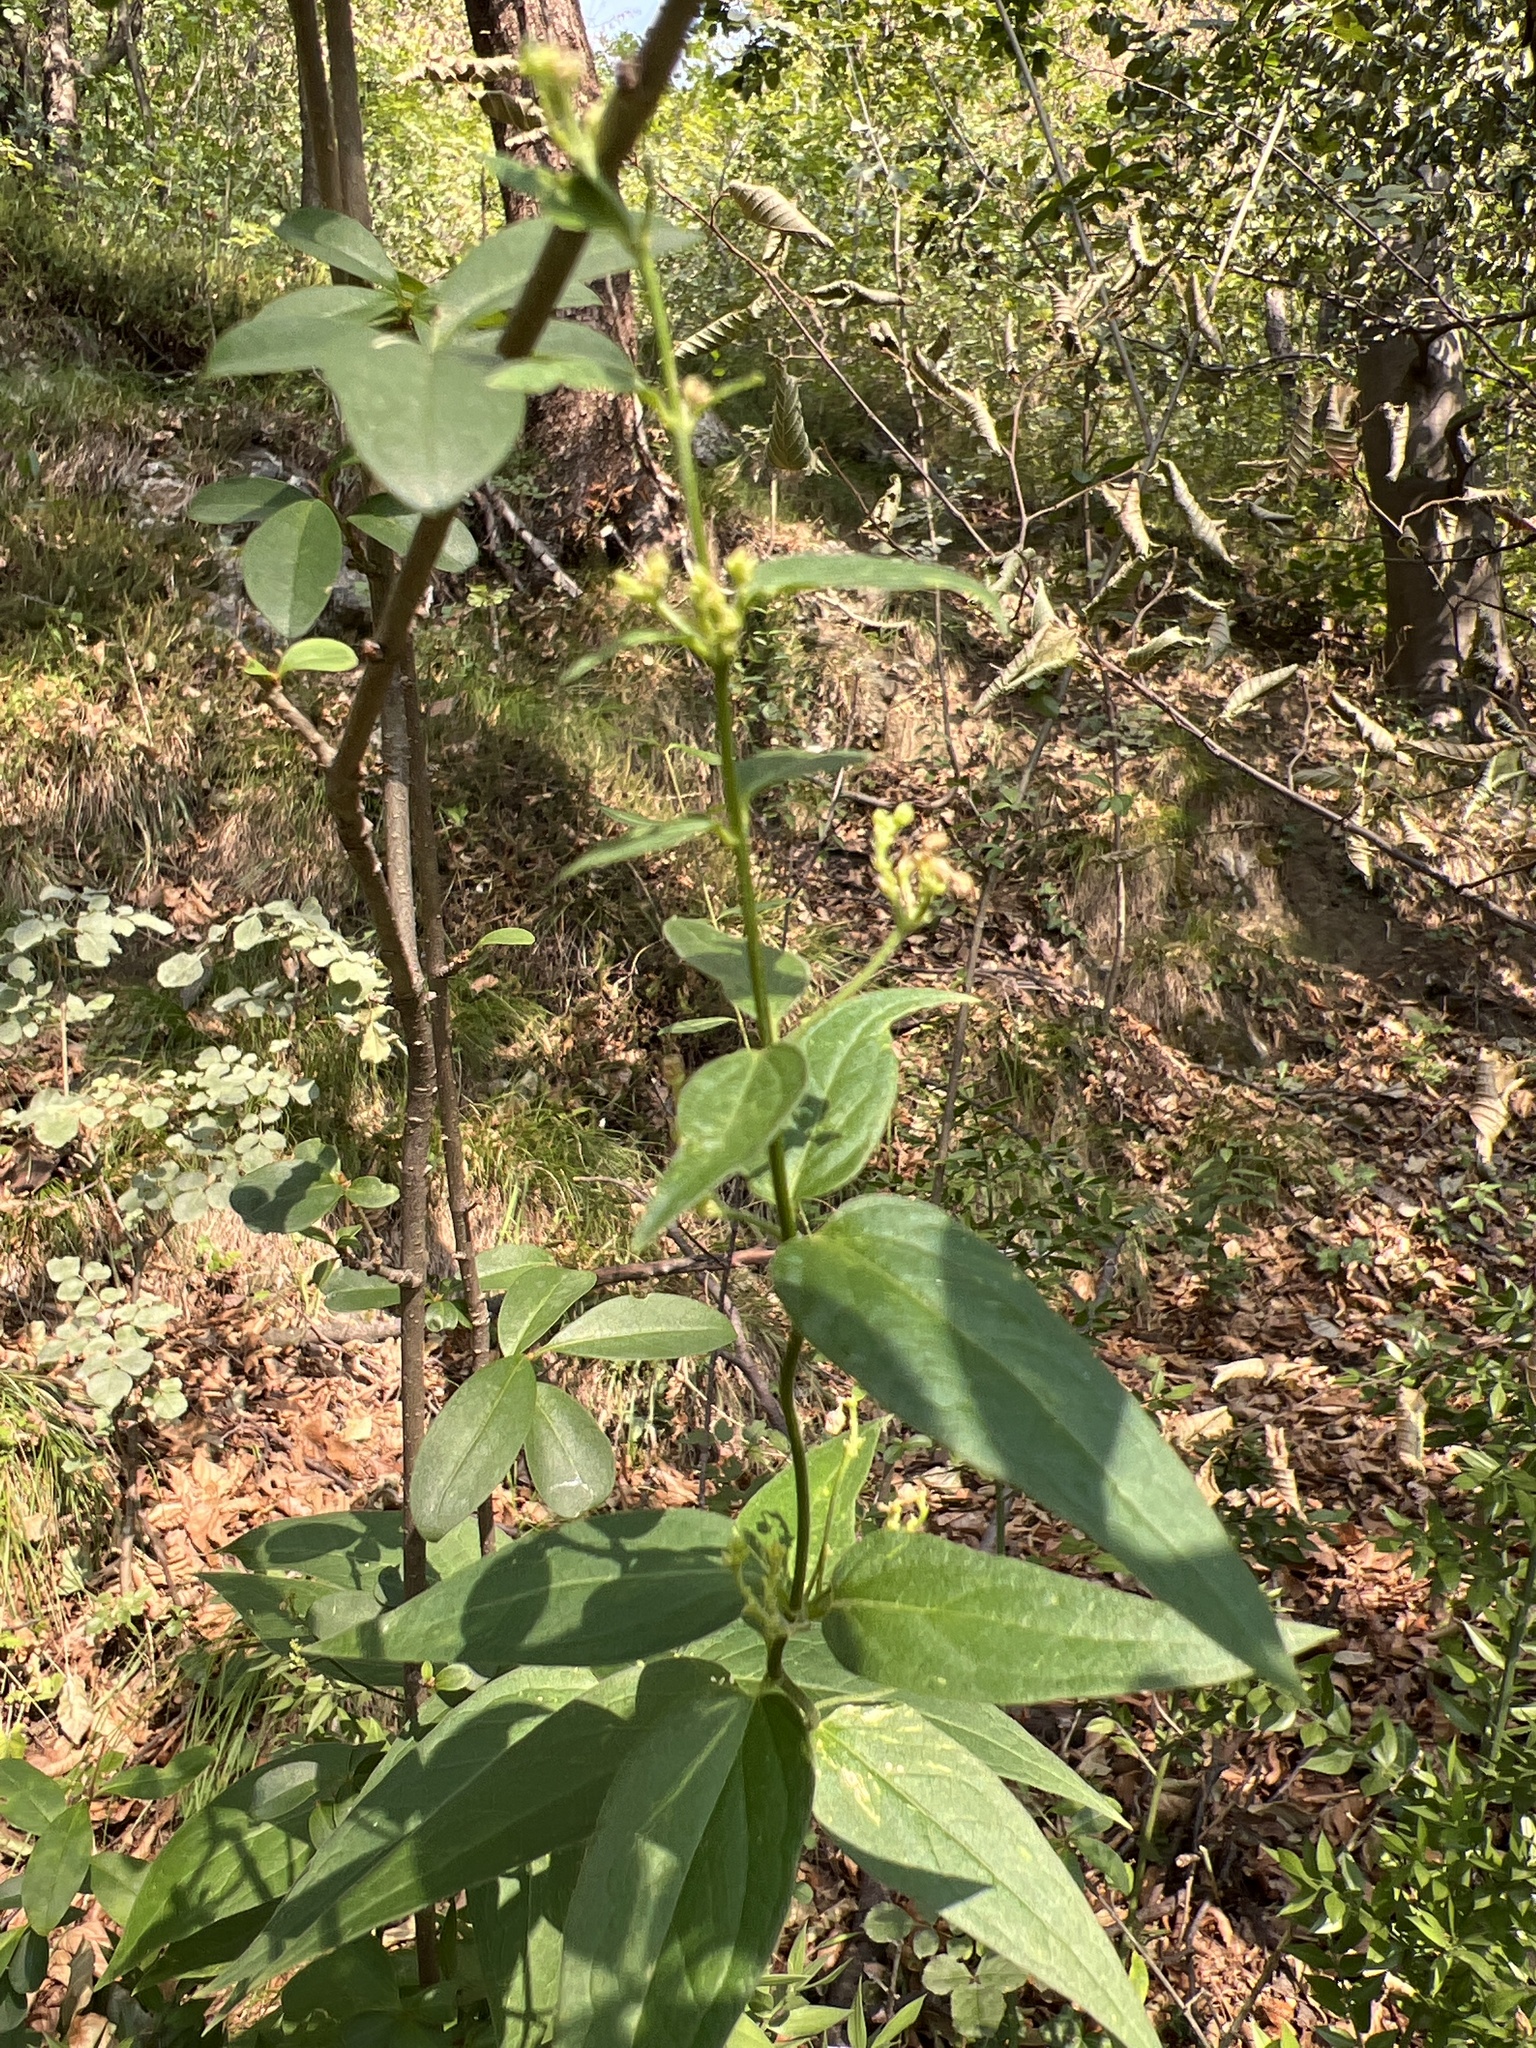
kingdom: Plantae
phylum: Tracheophyta
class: Magnoliopsida
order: Gentianales
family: Apocynaceae
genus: Vincetoxicum
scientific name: Vincetoxicum hirundinaria
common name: White swallowwort
